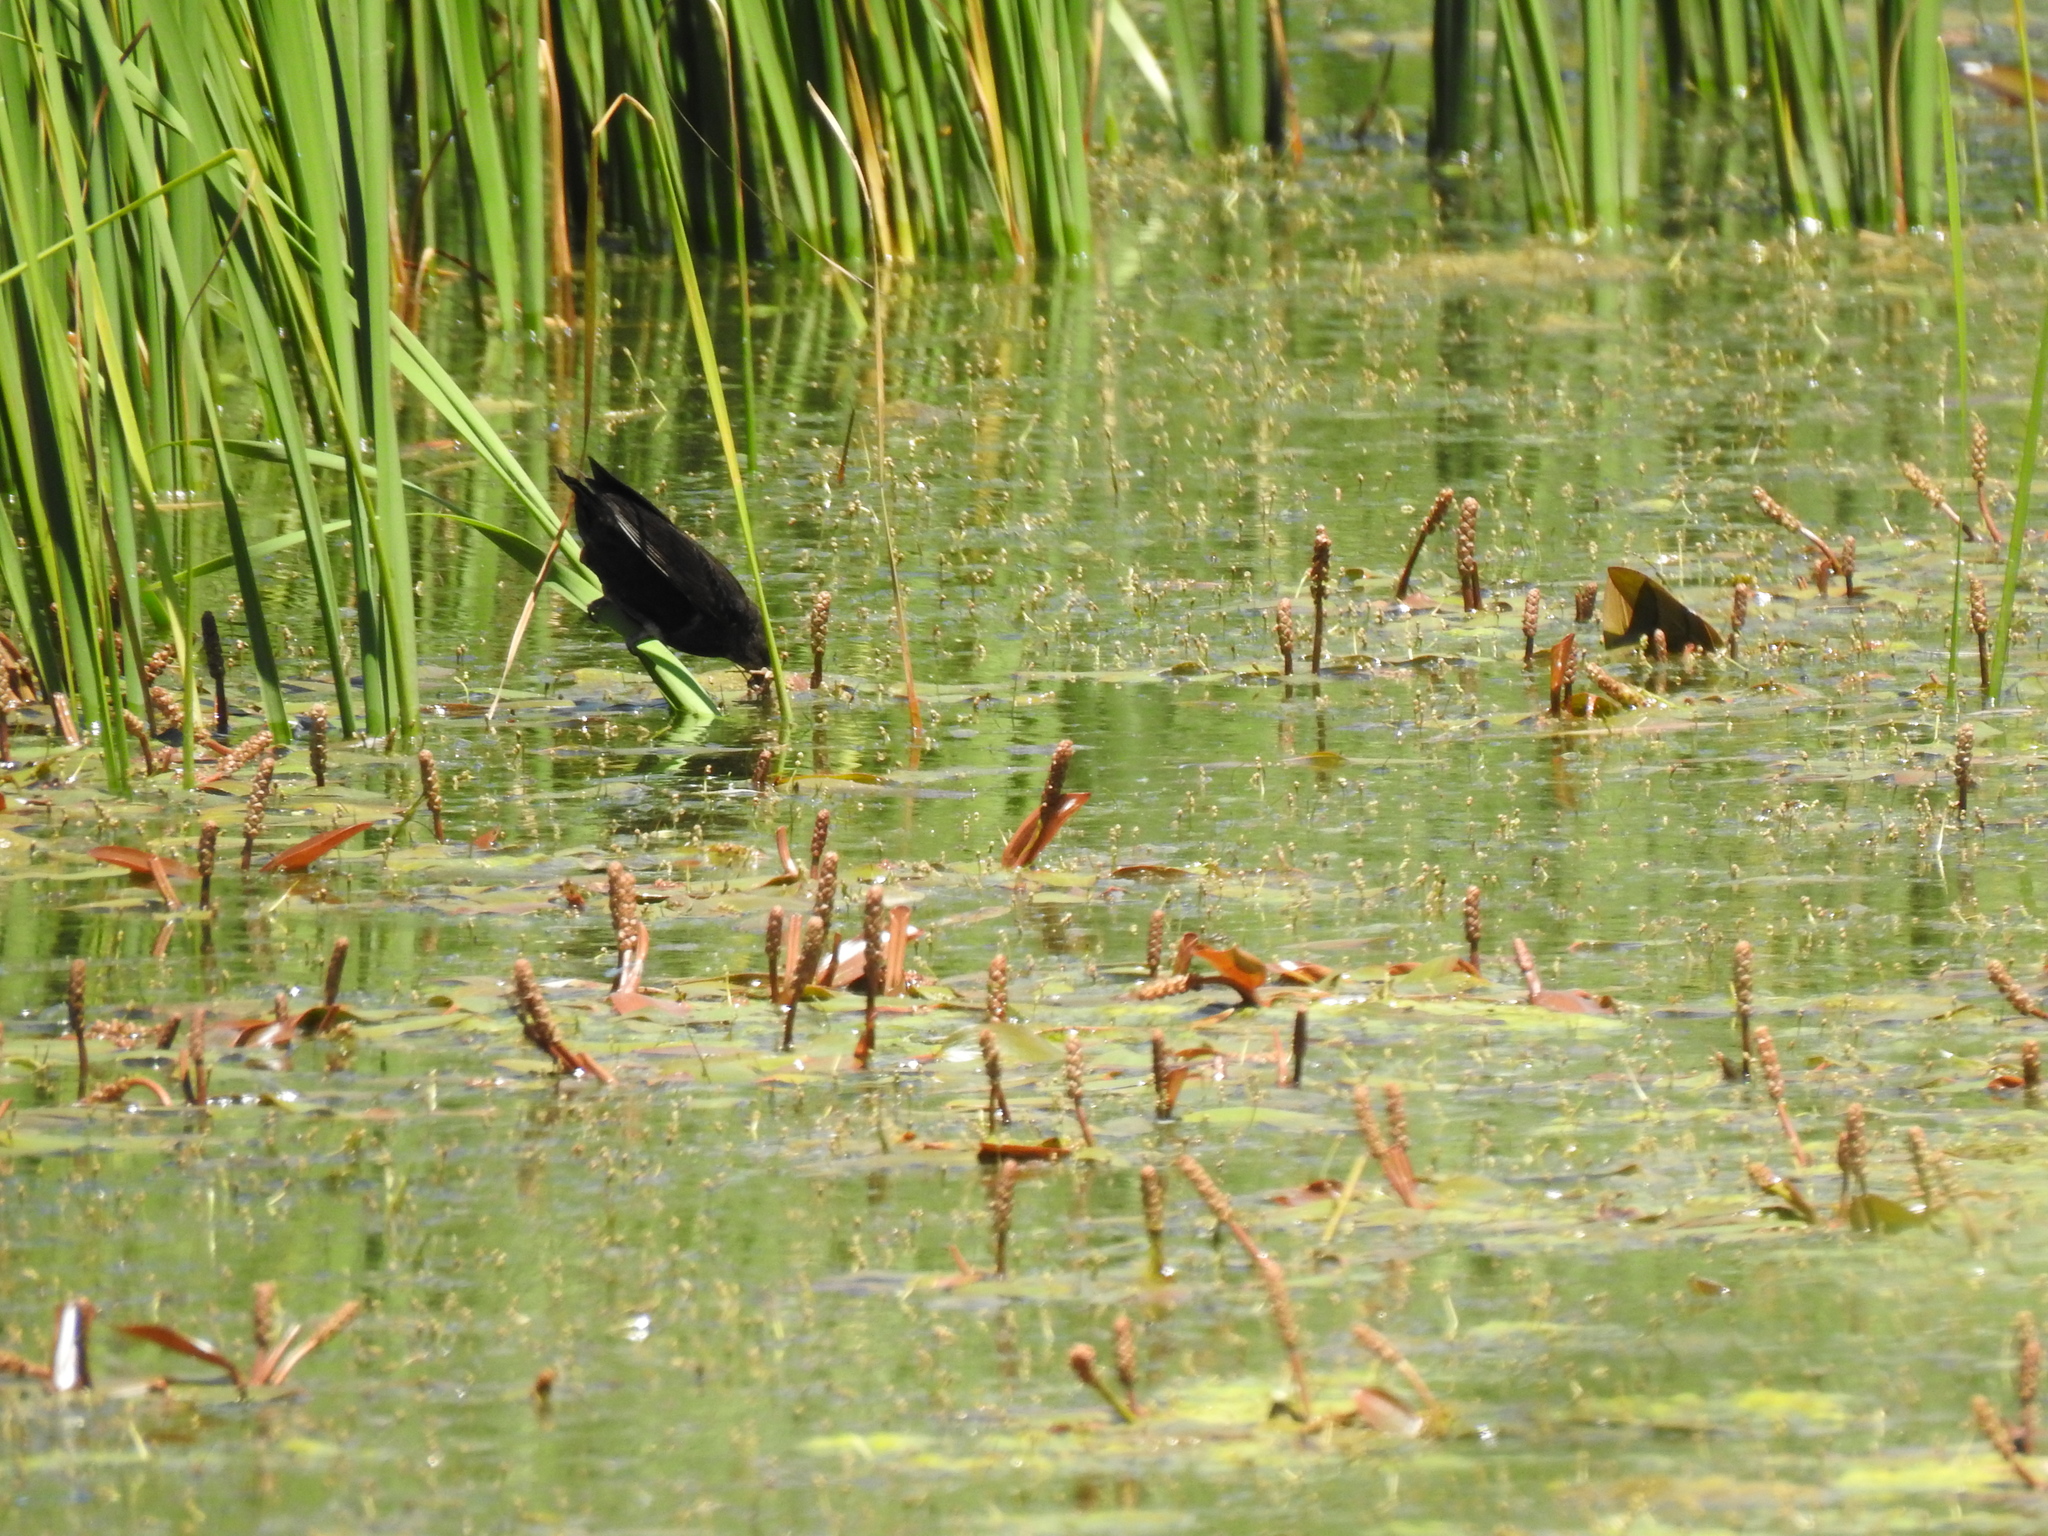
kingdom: Animalia
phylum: Chordata
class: Aves
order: Passeriformes
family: Icteridae
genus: Agelaius
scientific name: Agelaius phoeniceus
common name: Red-winged blackbird
